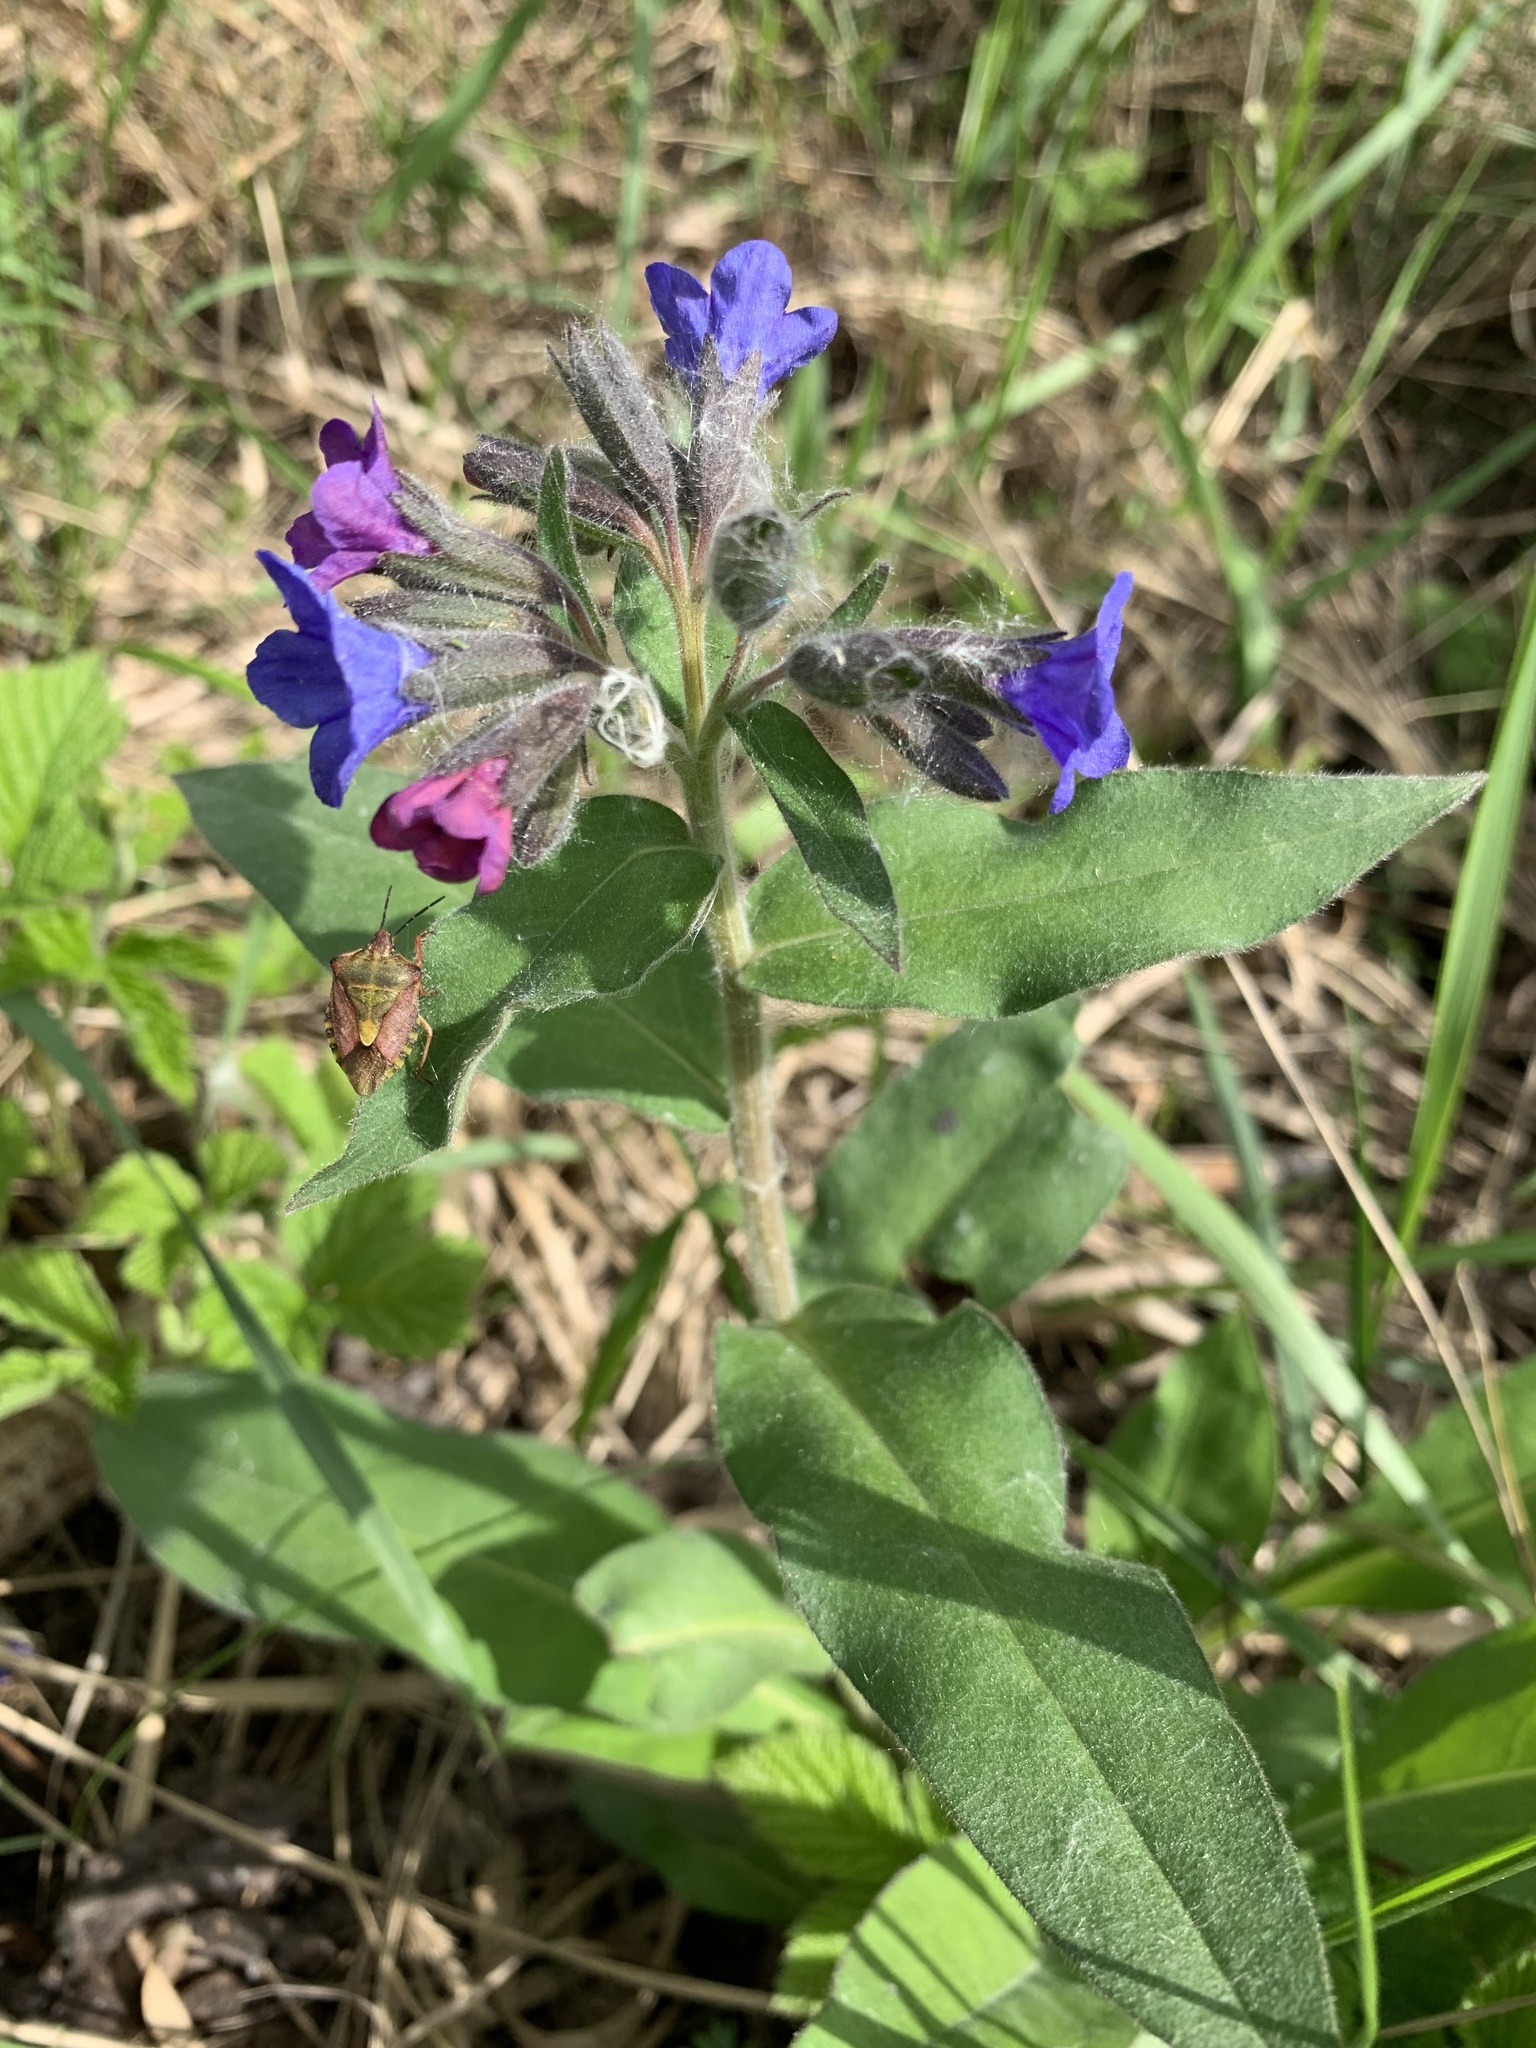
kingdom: Plantae
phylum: Tracheophyta
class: Magnoliopsida
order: Boraginales
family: Boraginaceae
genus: Pulmonaria
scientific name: Pulmonaria mollis
